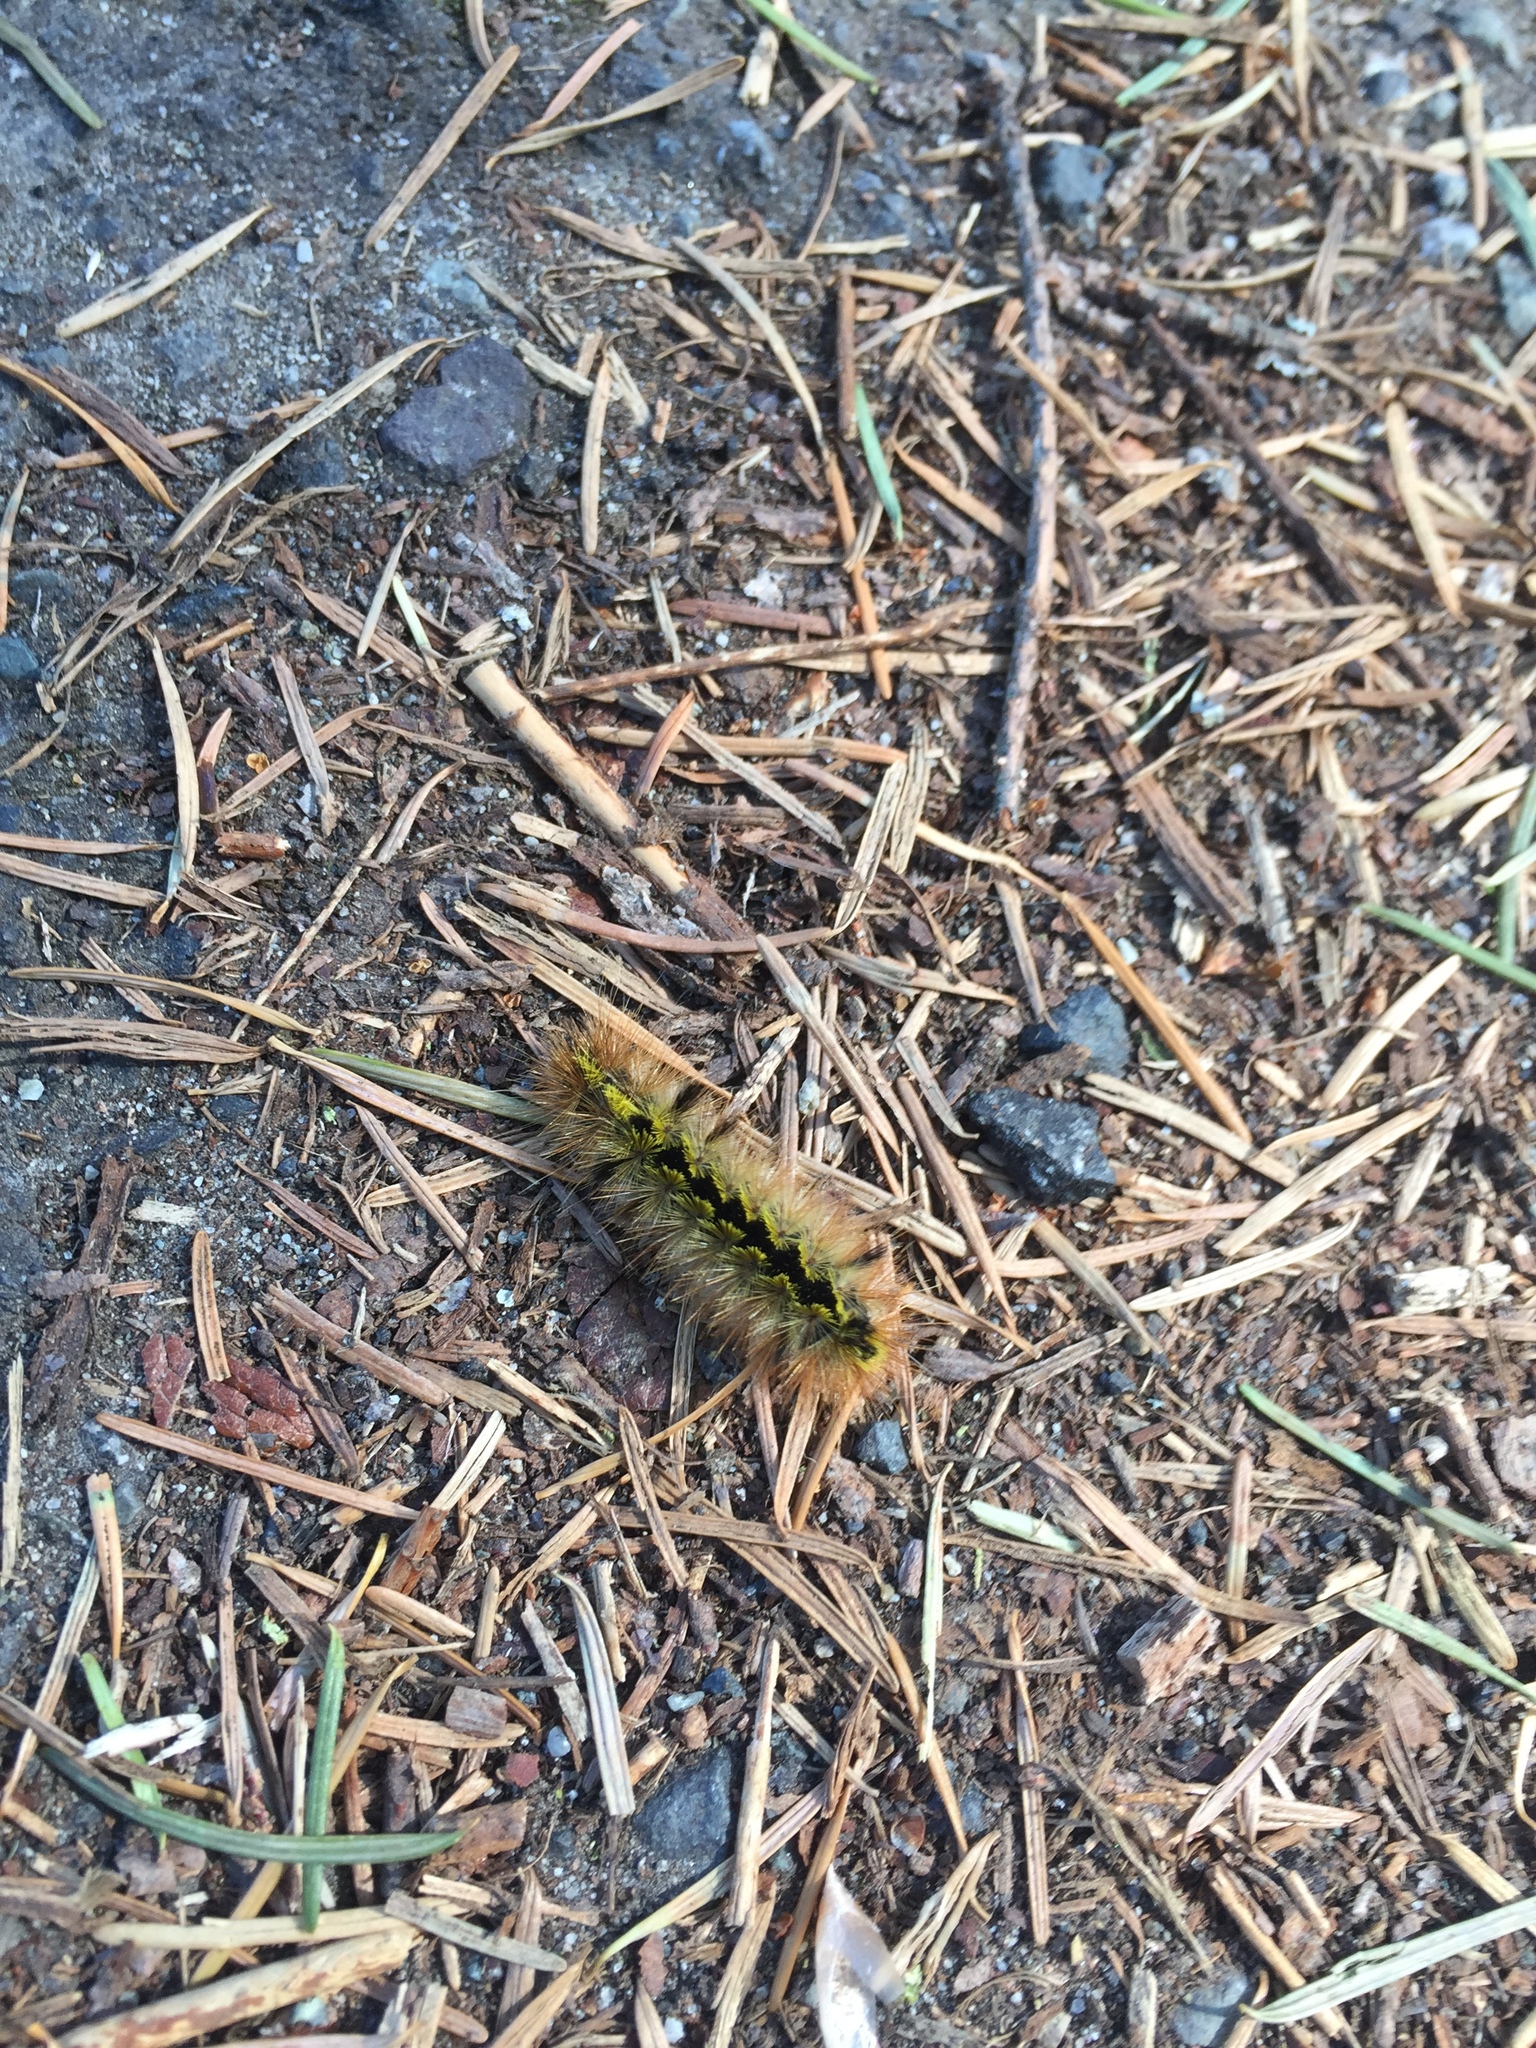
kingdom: Animalia
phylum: Arthropoda
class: Insecta
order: Lepidoptera
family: Erebidae
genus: Lophocampa
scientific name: Lophocampa argentata
